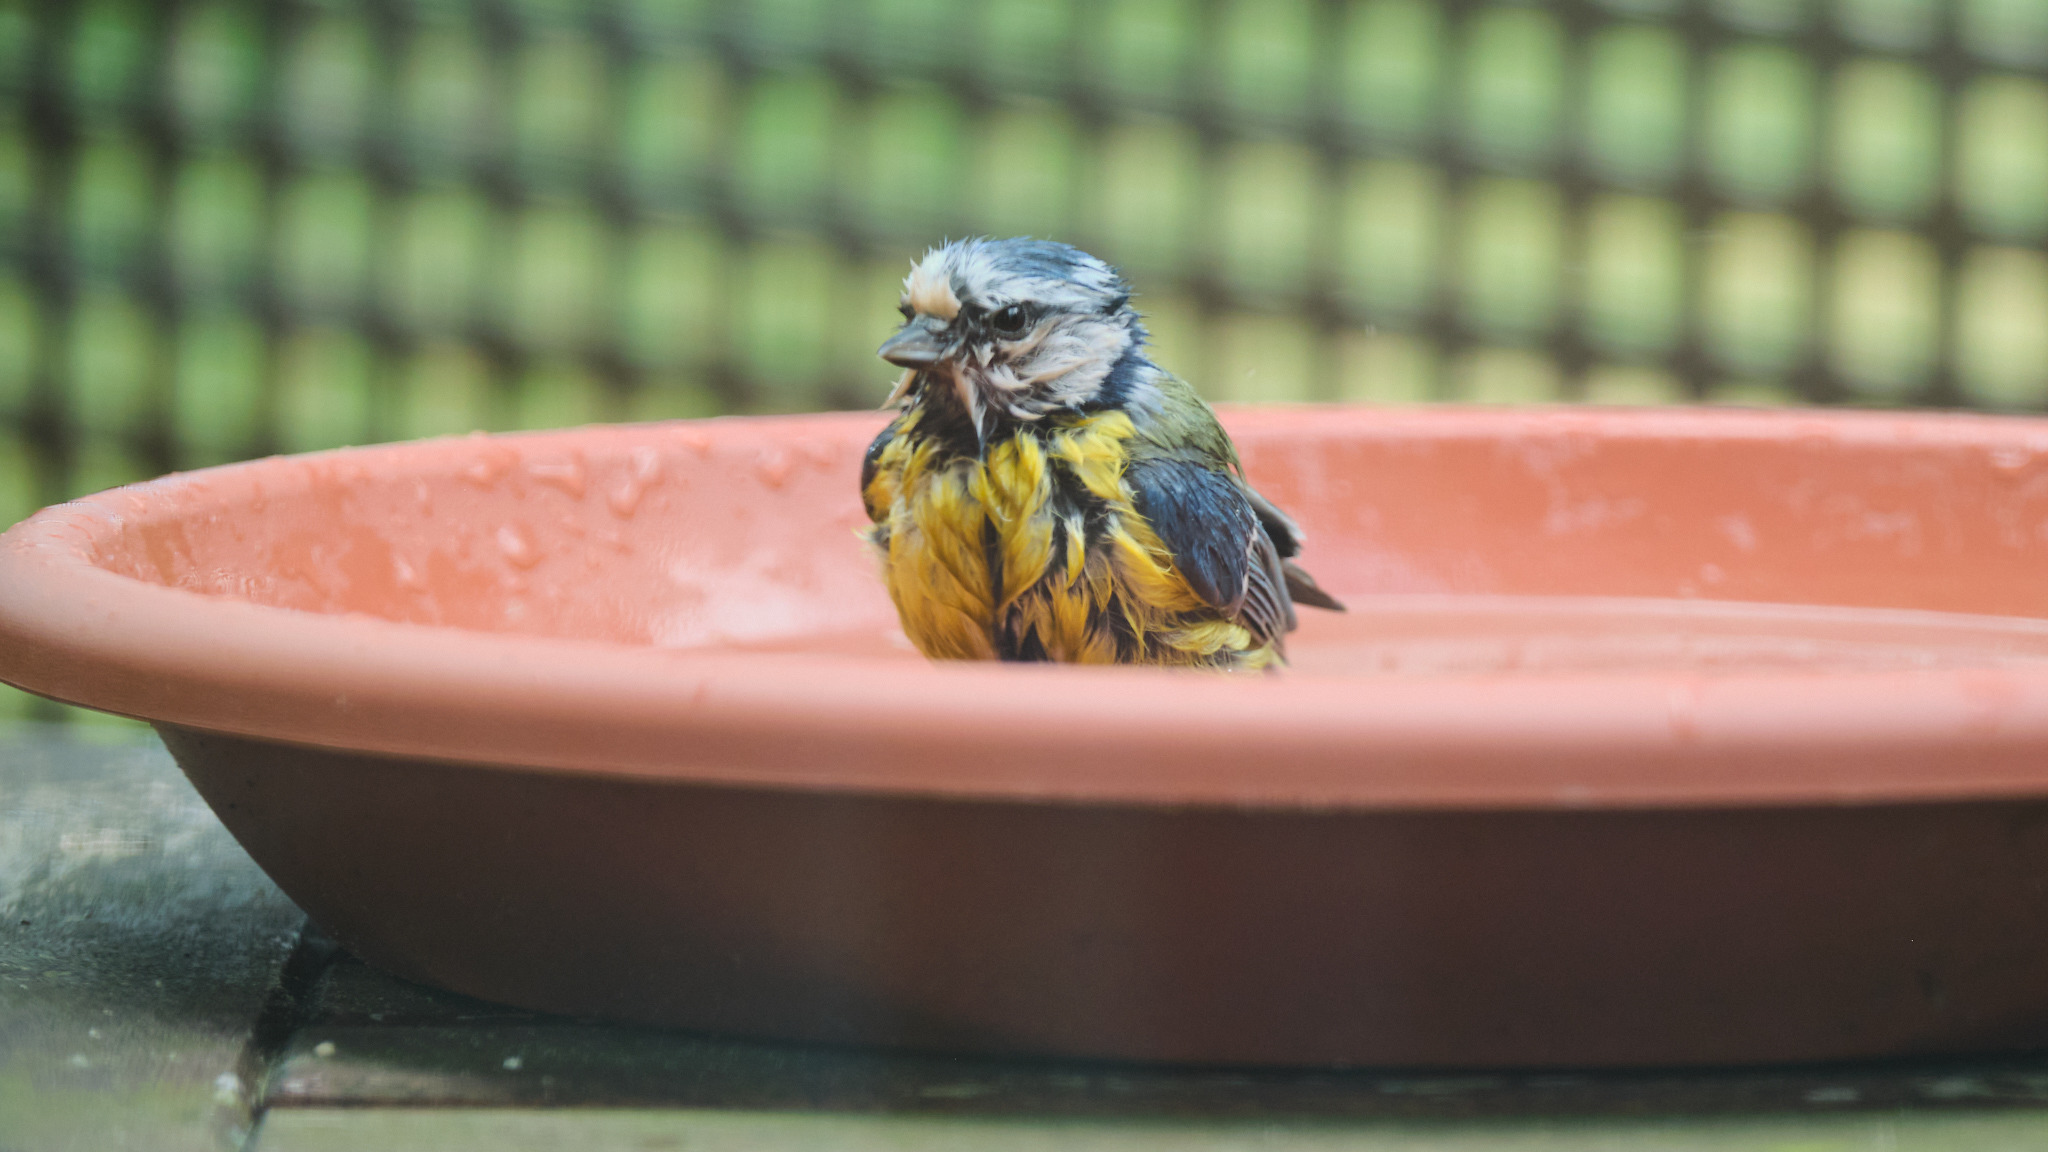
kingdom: Animalia
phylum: Chordata
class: Aves
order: Passeriformes
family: Paridae
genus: Cyanistes
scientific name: Cyanistes caeruleus
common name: Eurasian blue tit
